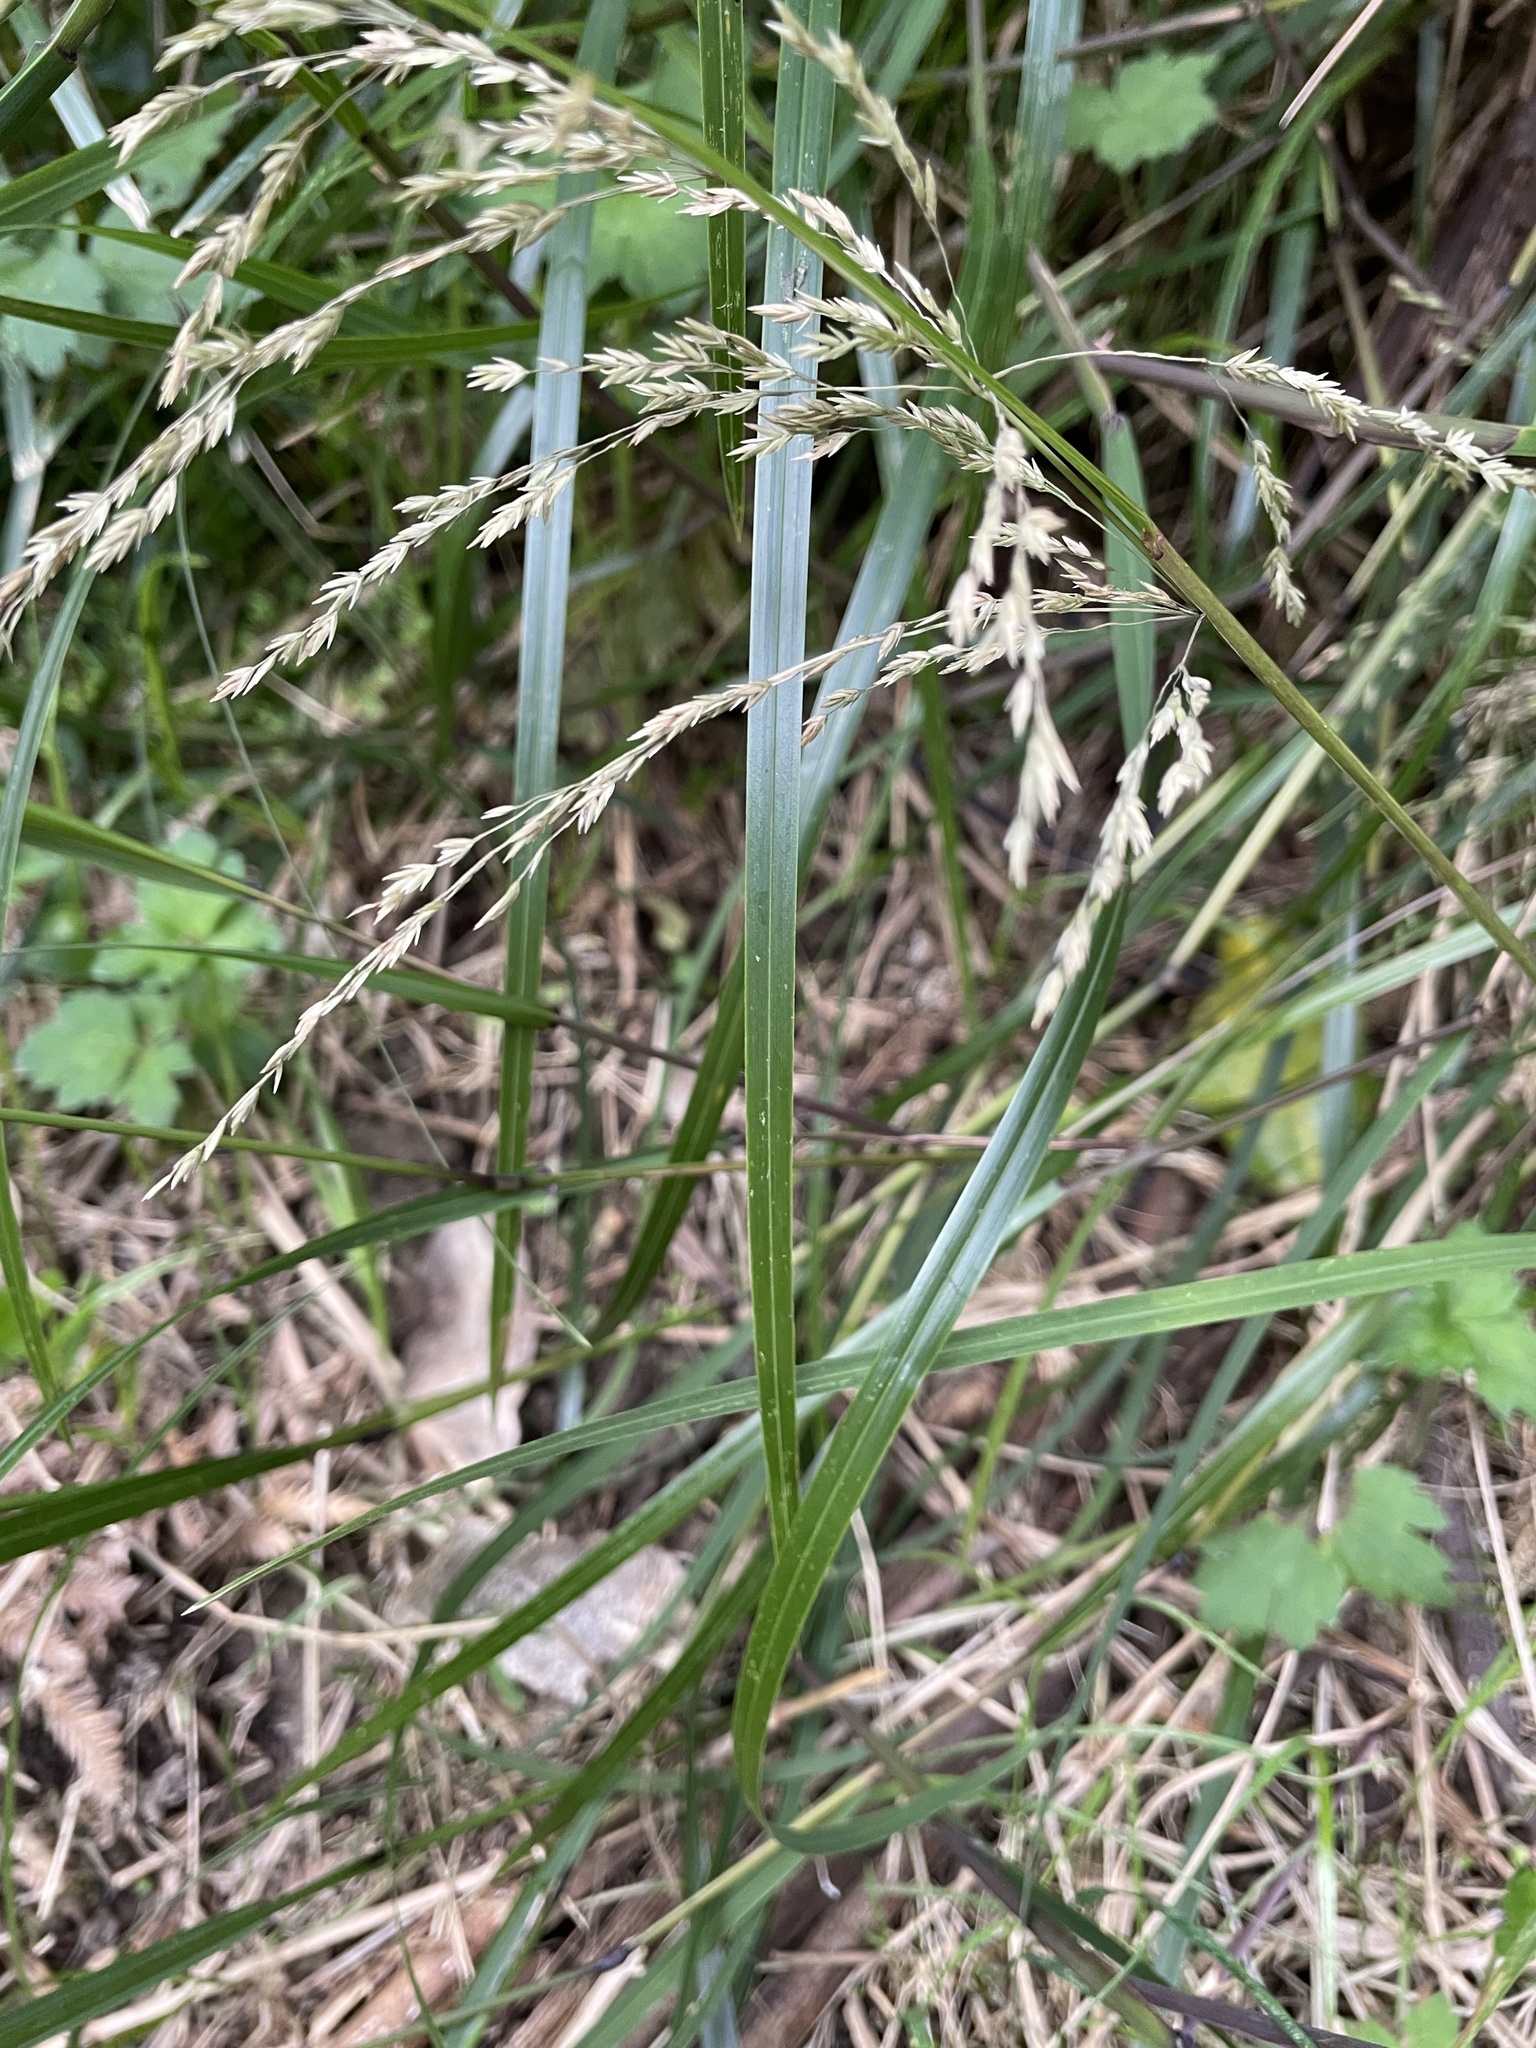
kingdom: Plantae
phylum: Tracheophyta
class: Liliopsida
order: Poales
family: Poaceae
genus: Poa
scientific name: Poa anceps
